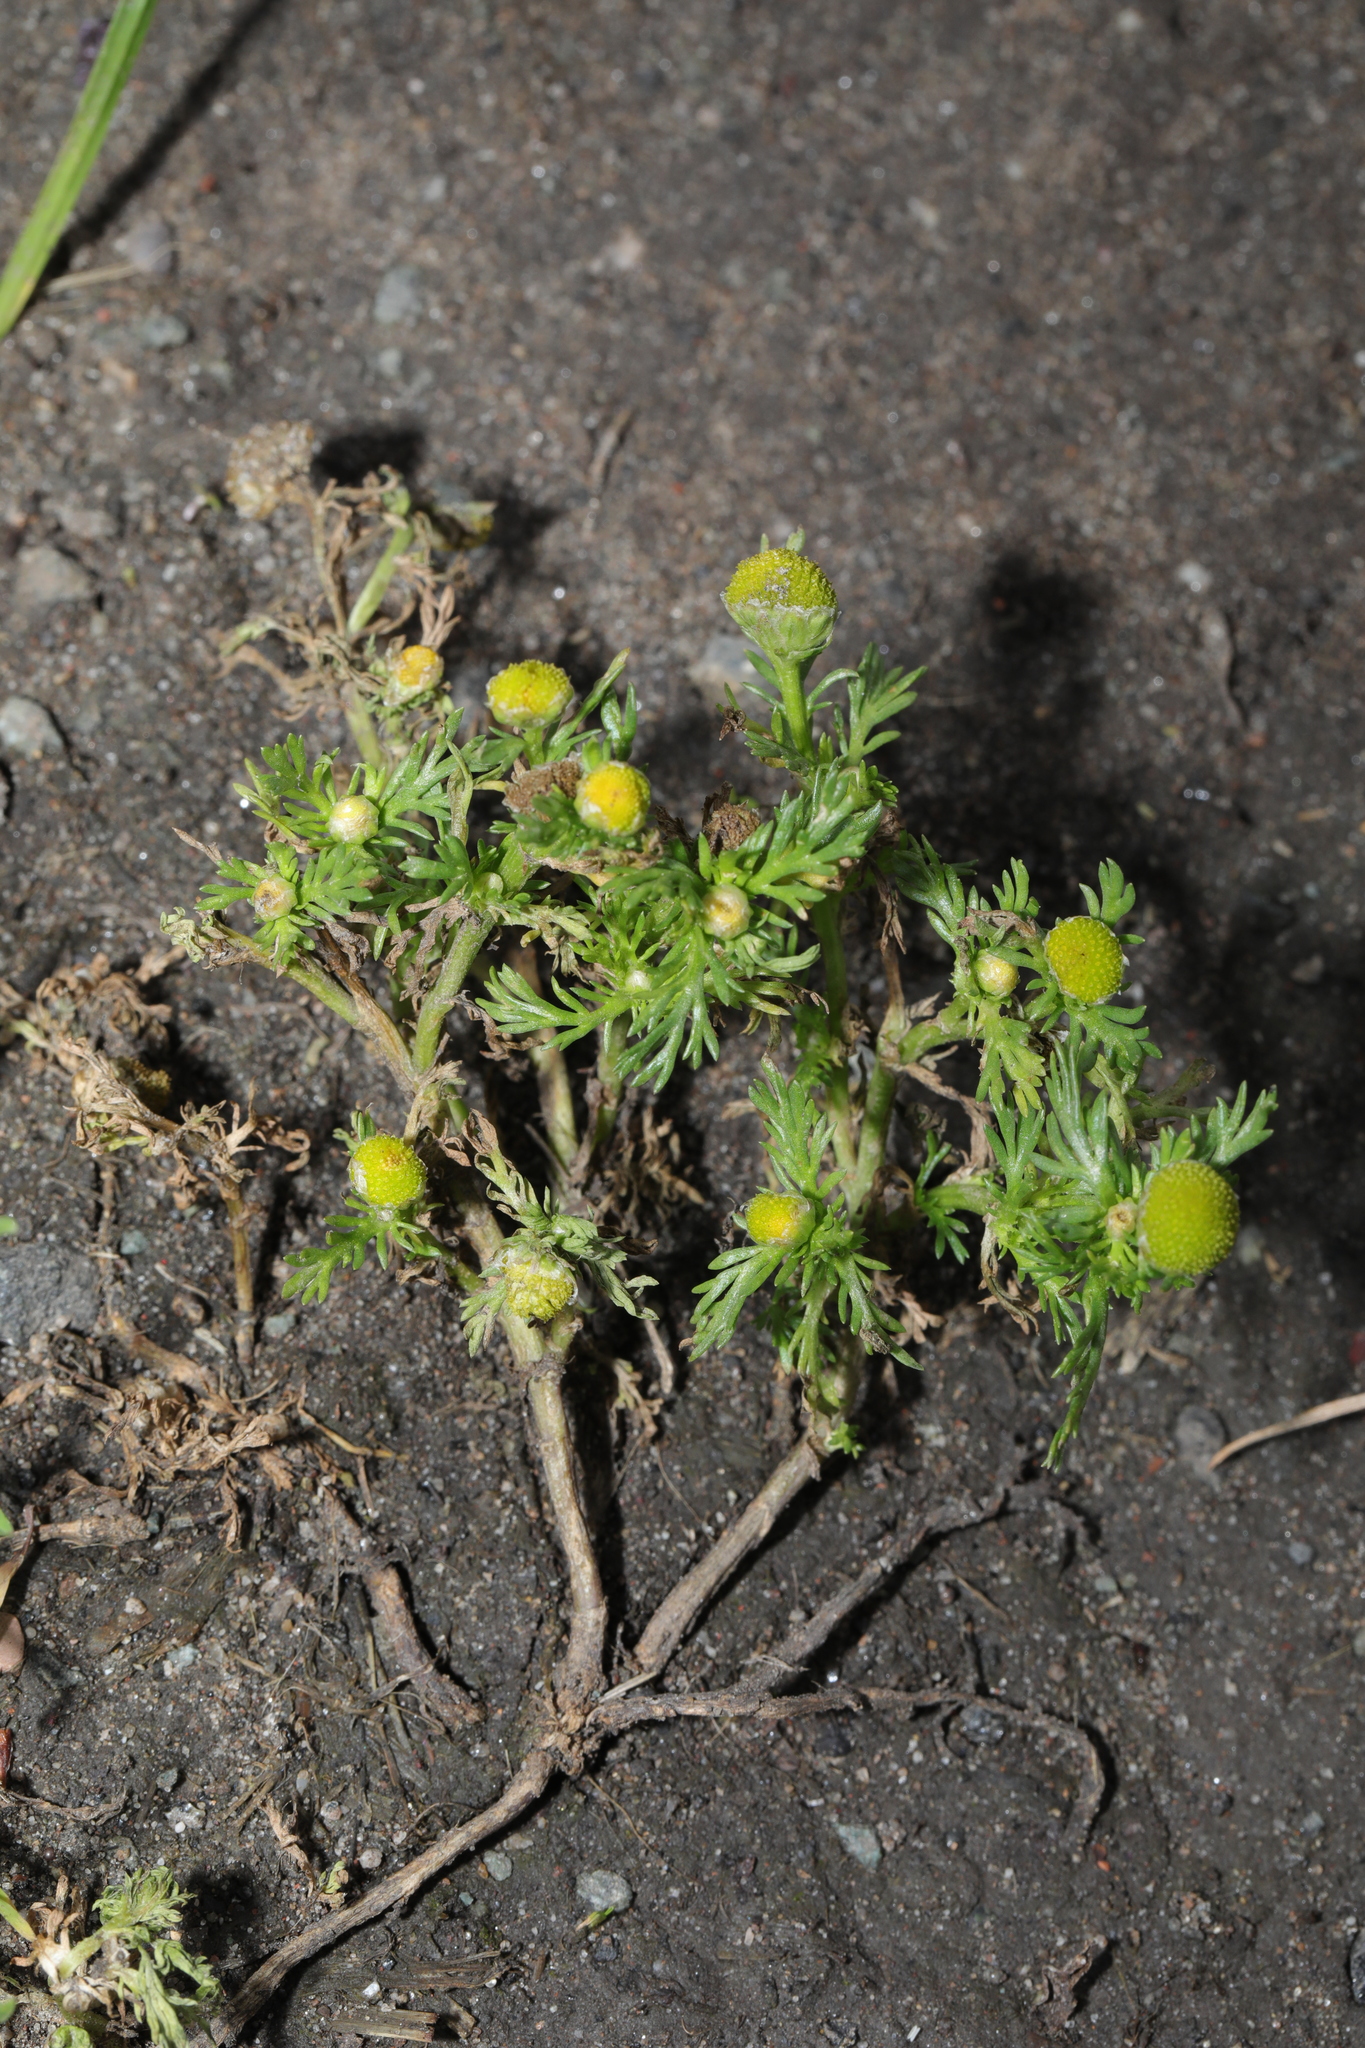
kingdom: Plantae
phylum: Tracheophyta
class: Magnoliopsida
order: Asterales
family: Asteraceae
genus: Matricaria
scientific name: Matricaria discoidea
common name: Disc mayweed
